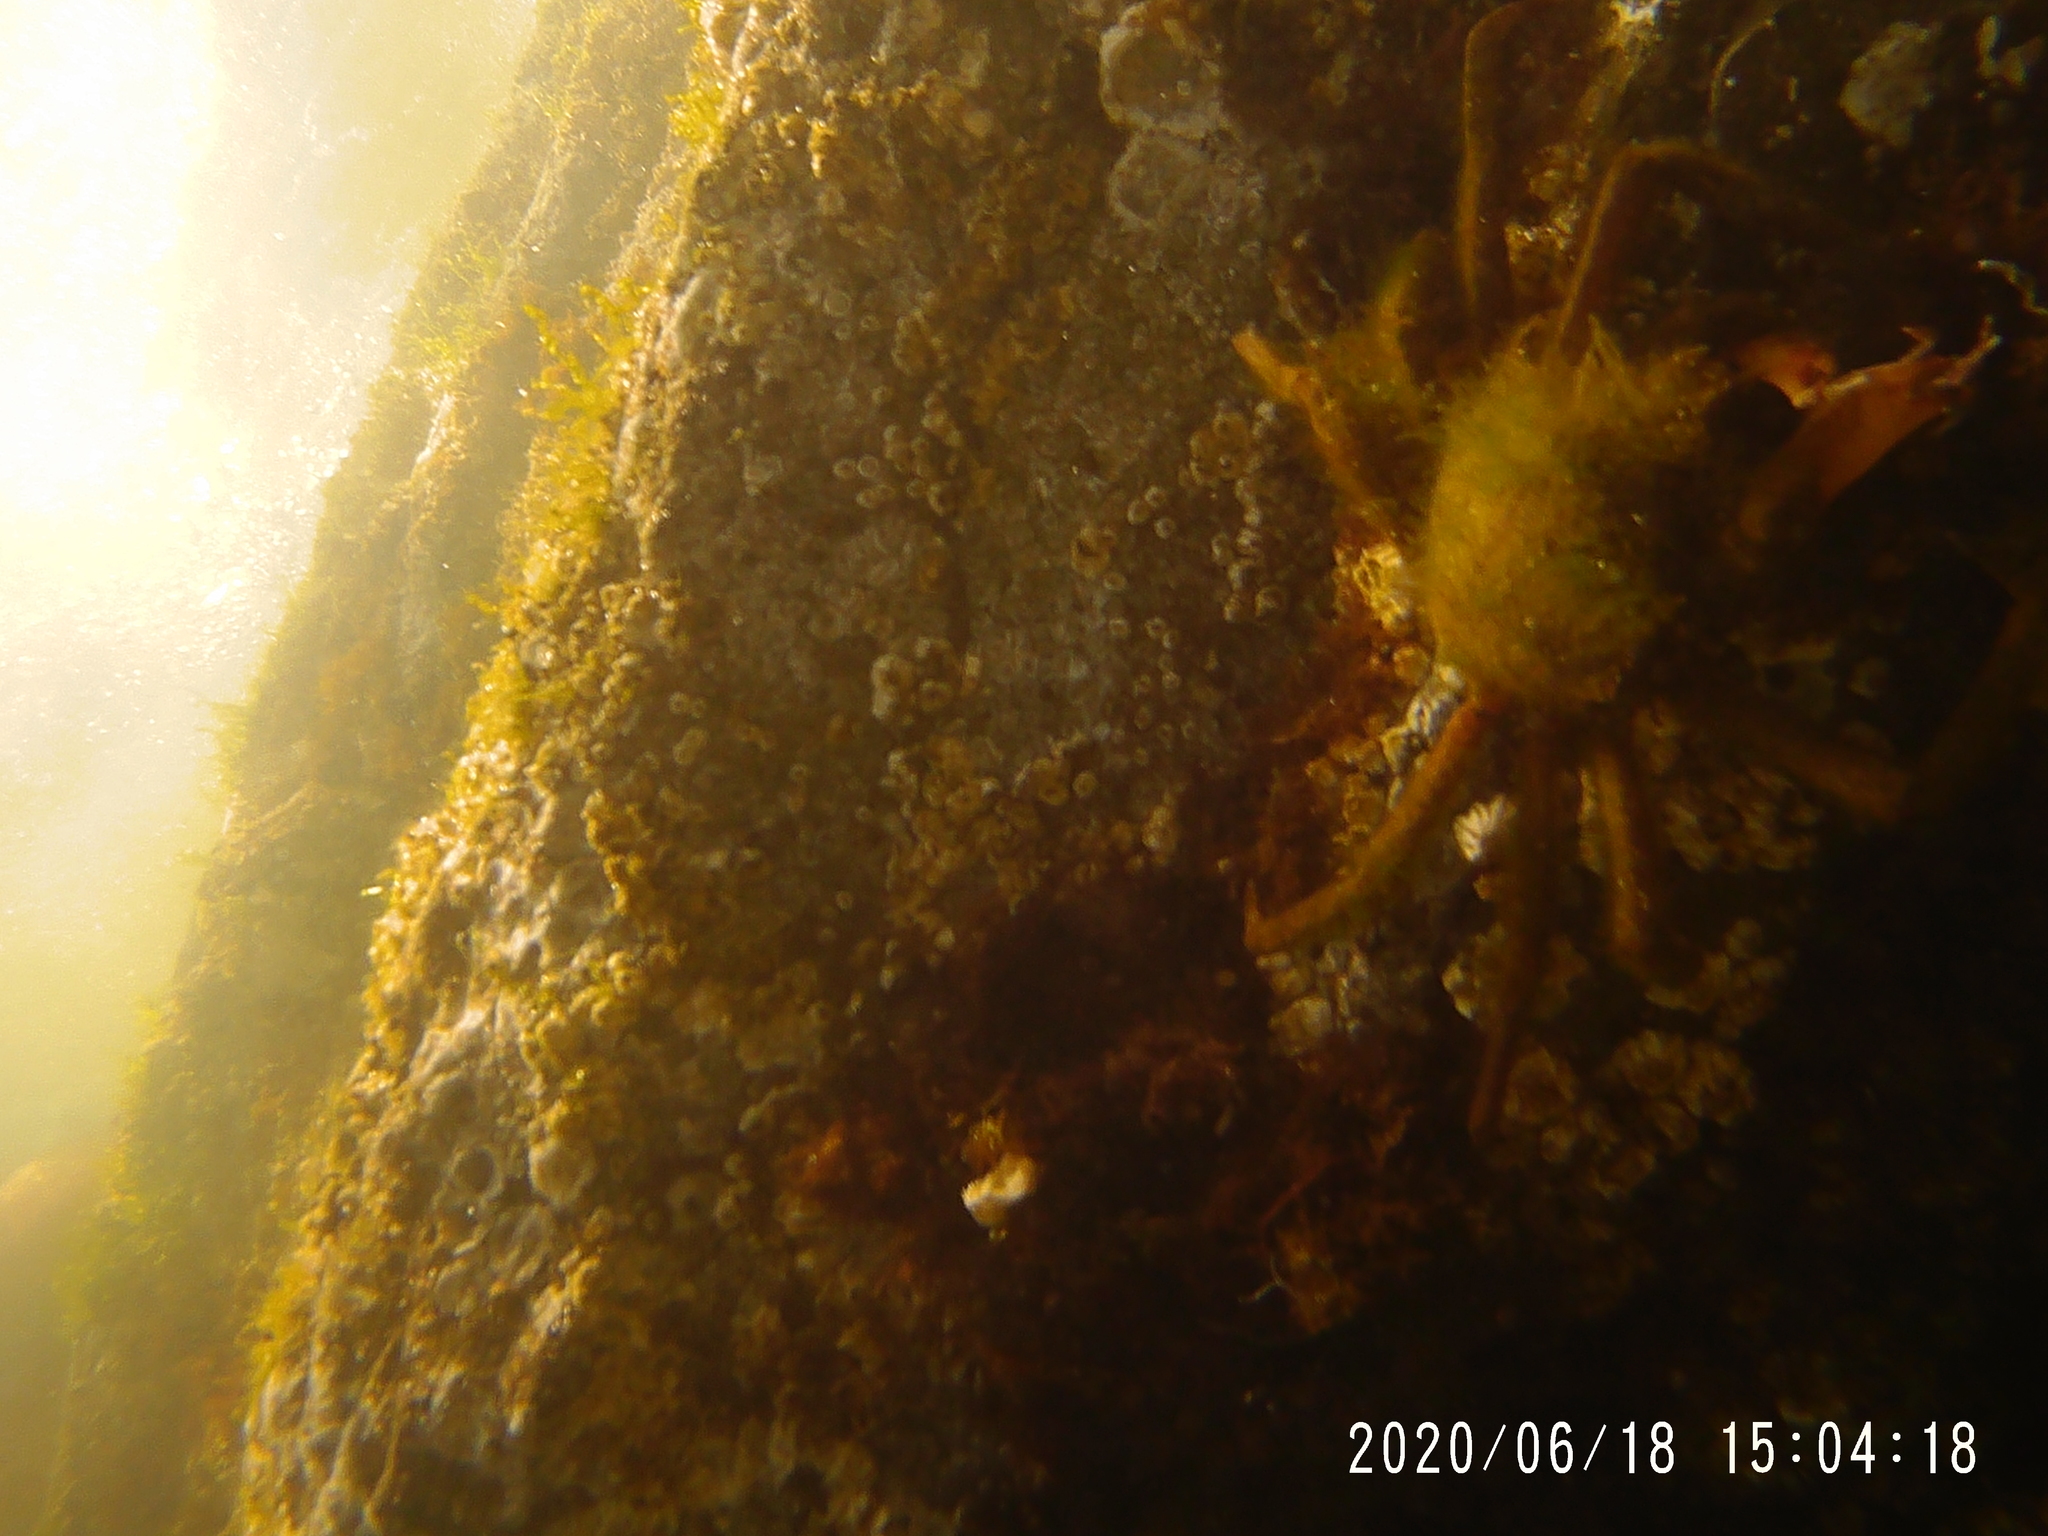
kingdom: Animalia
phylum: Arthropoda
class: Malacostraca
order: Decapoda
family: Epialtidae
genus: Pugettia
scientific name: Pugettia producta
